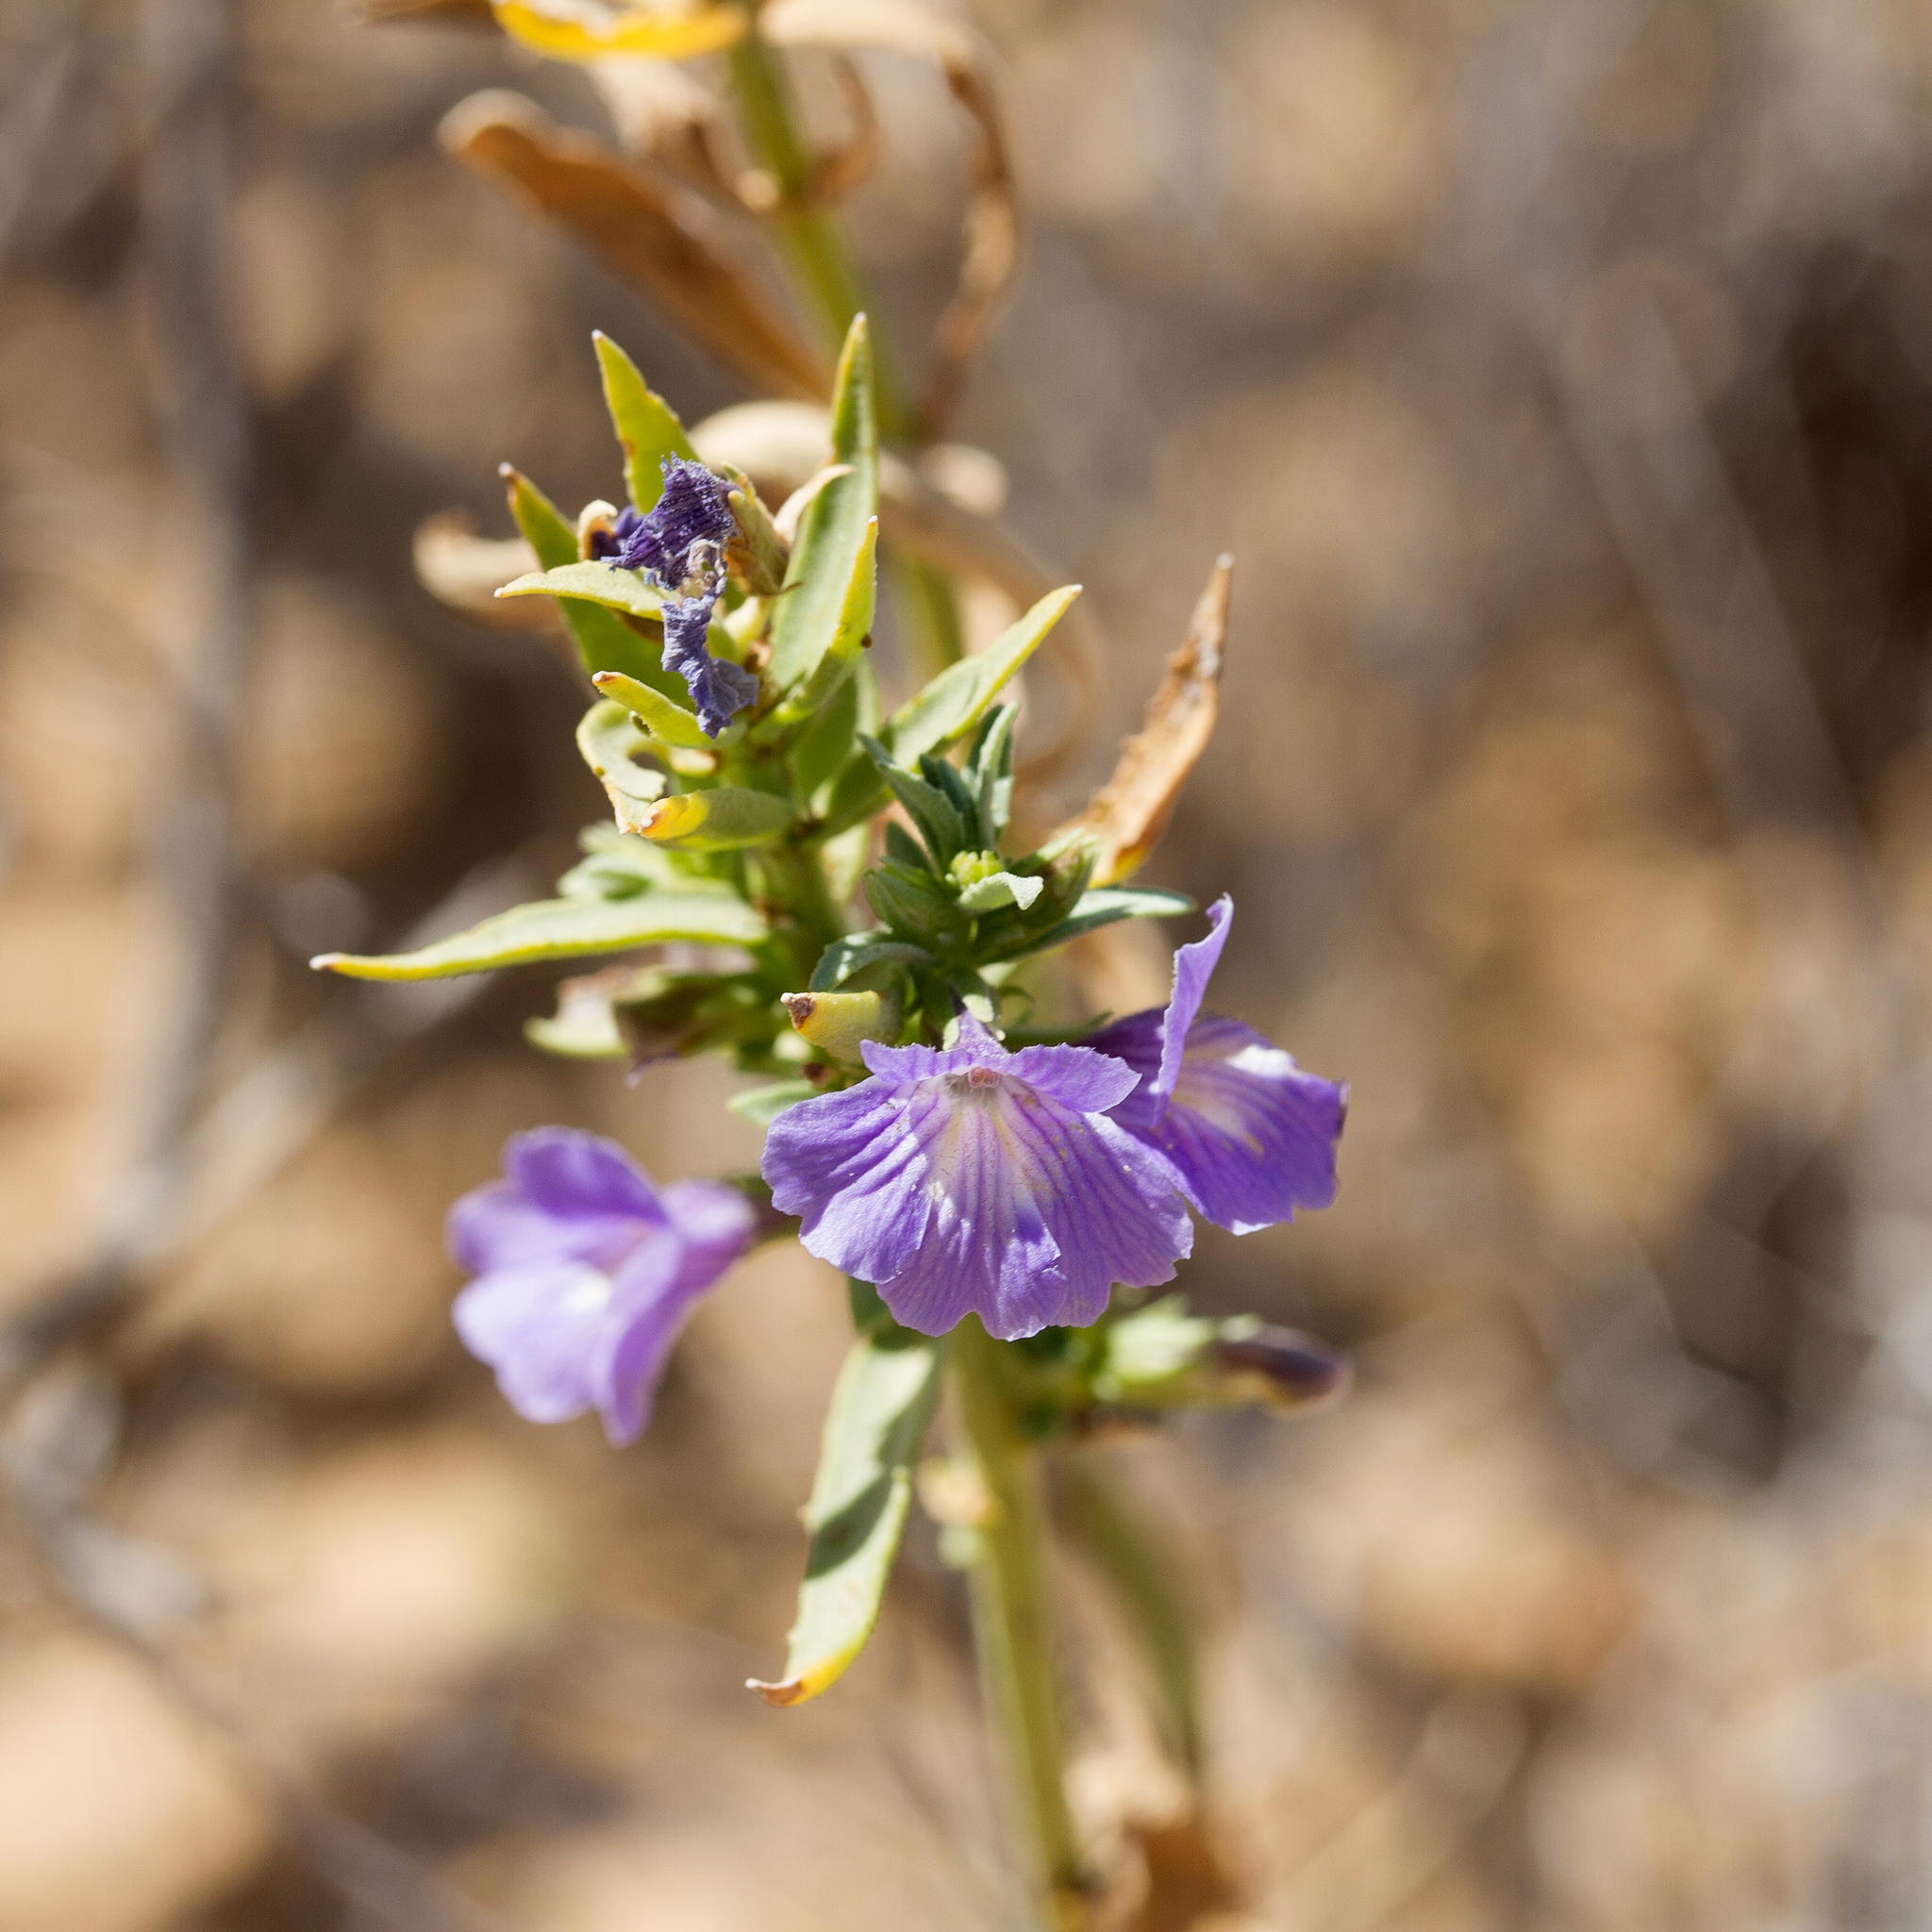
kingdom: Plantae
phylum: Tracheophyta
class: Magnoliopsida
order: Lamiales
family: Plantaginaceae
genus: Stemodia
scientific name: Stemodia florulenta
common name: Bluerod
